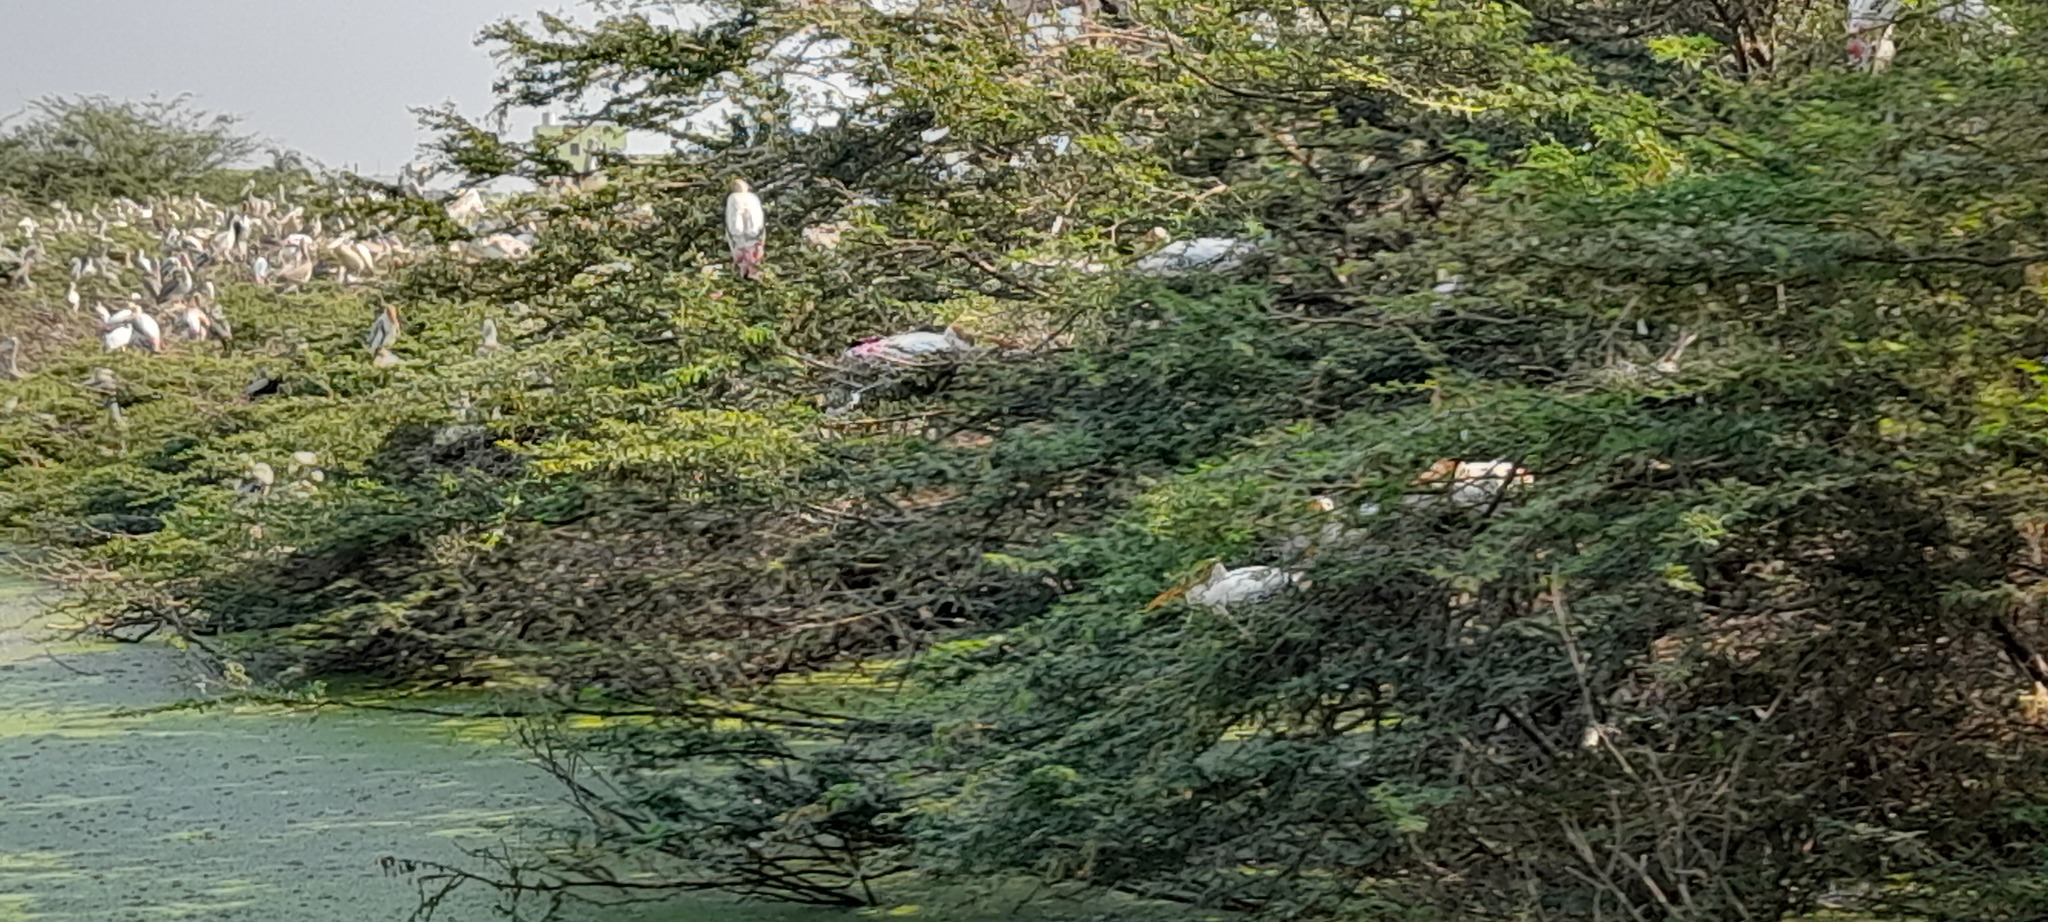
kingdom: Animalia
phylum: Chordata
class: Aves
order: Ciconiiformes
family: Ciconiidae
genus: Mycteria
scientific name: Mycteria leucocephala
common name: Painted stork
